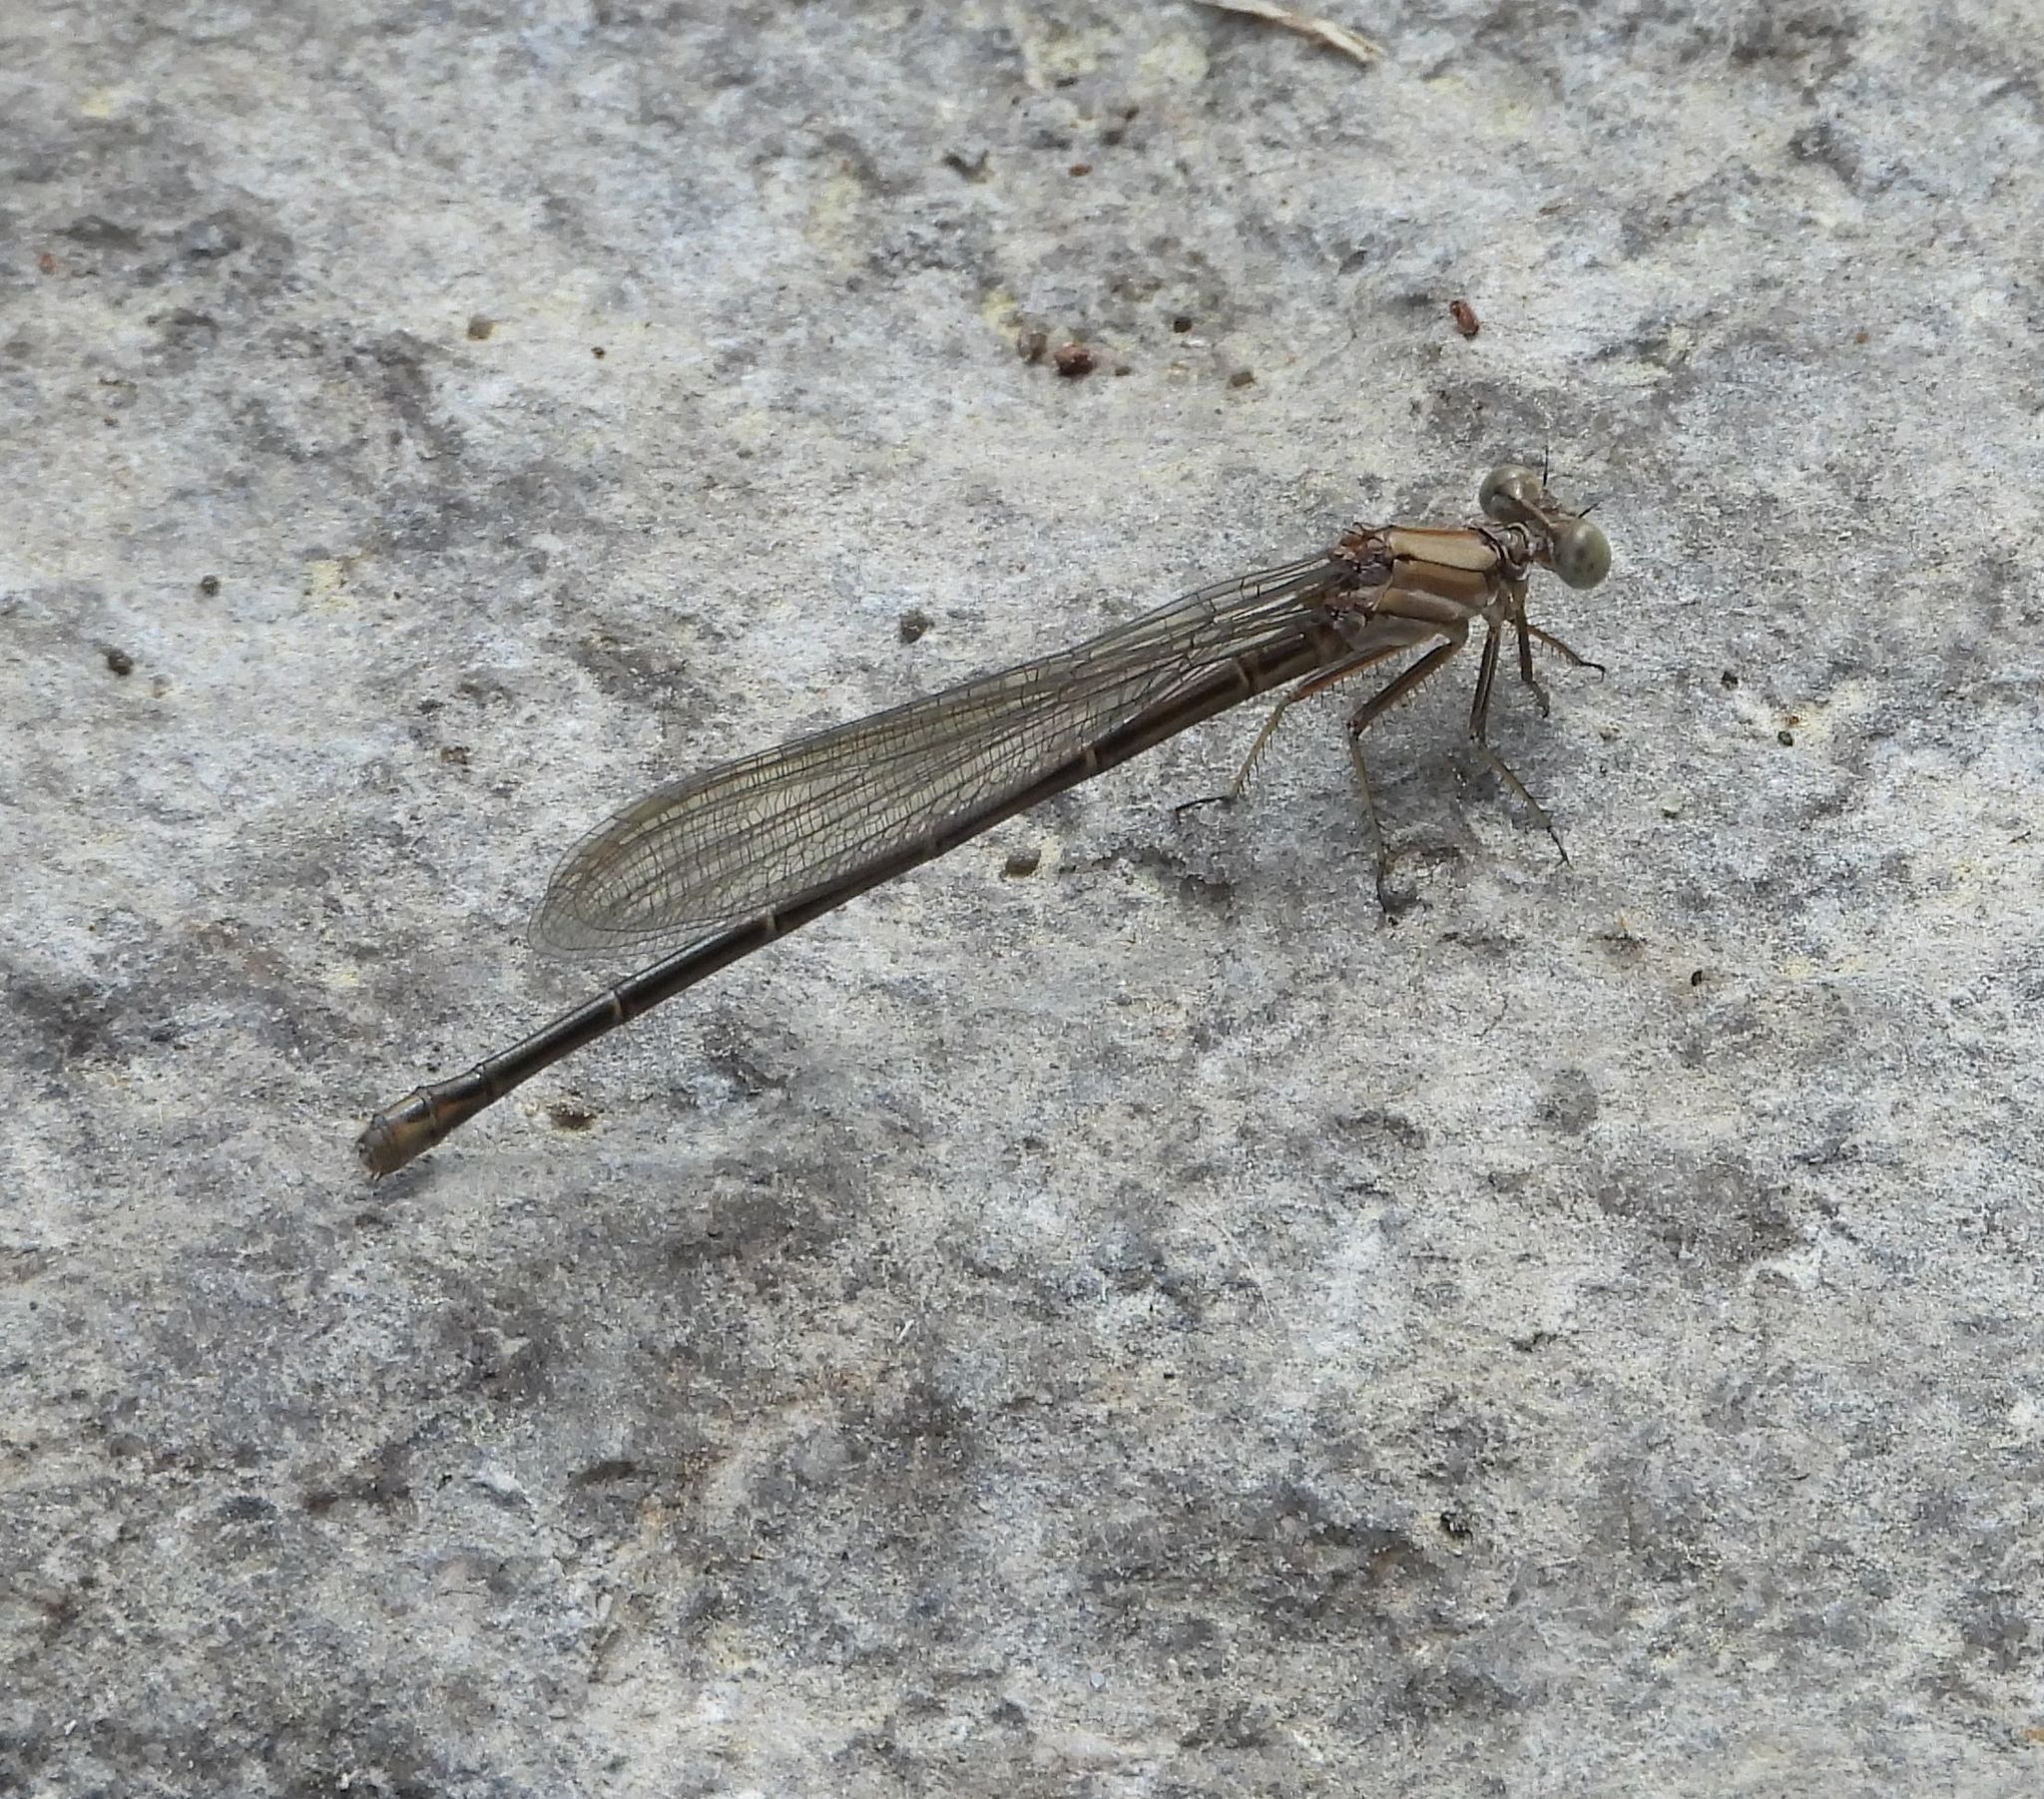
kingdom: Animalia
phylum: Arthropoda
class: Insecta
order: Odonata
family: Coenagrionidae
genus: Argia
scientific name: Argia moesta
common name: Powdered dancer
